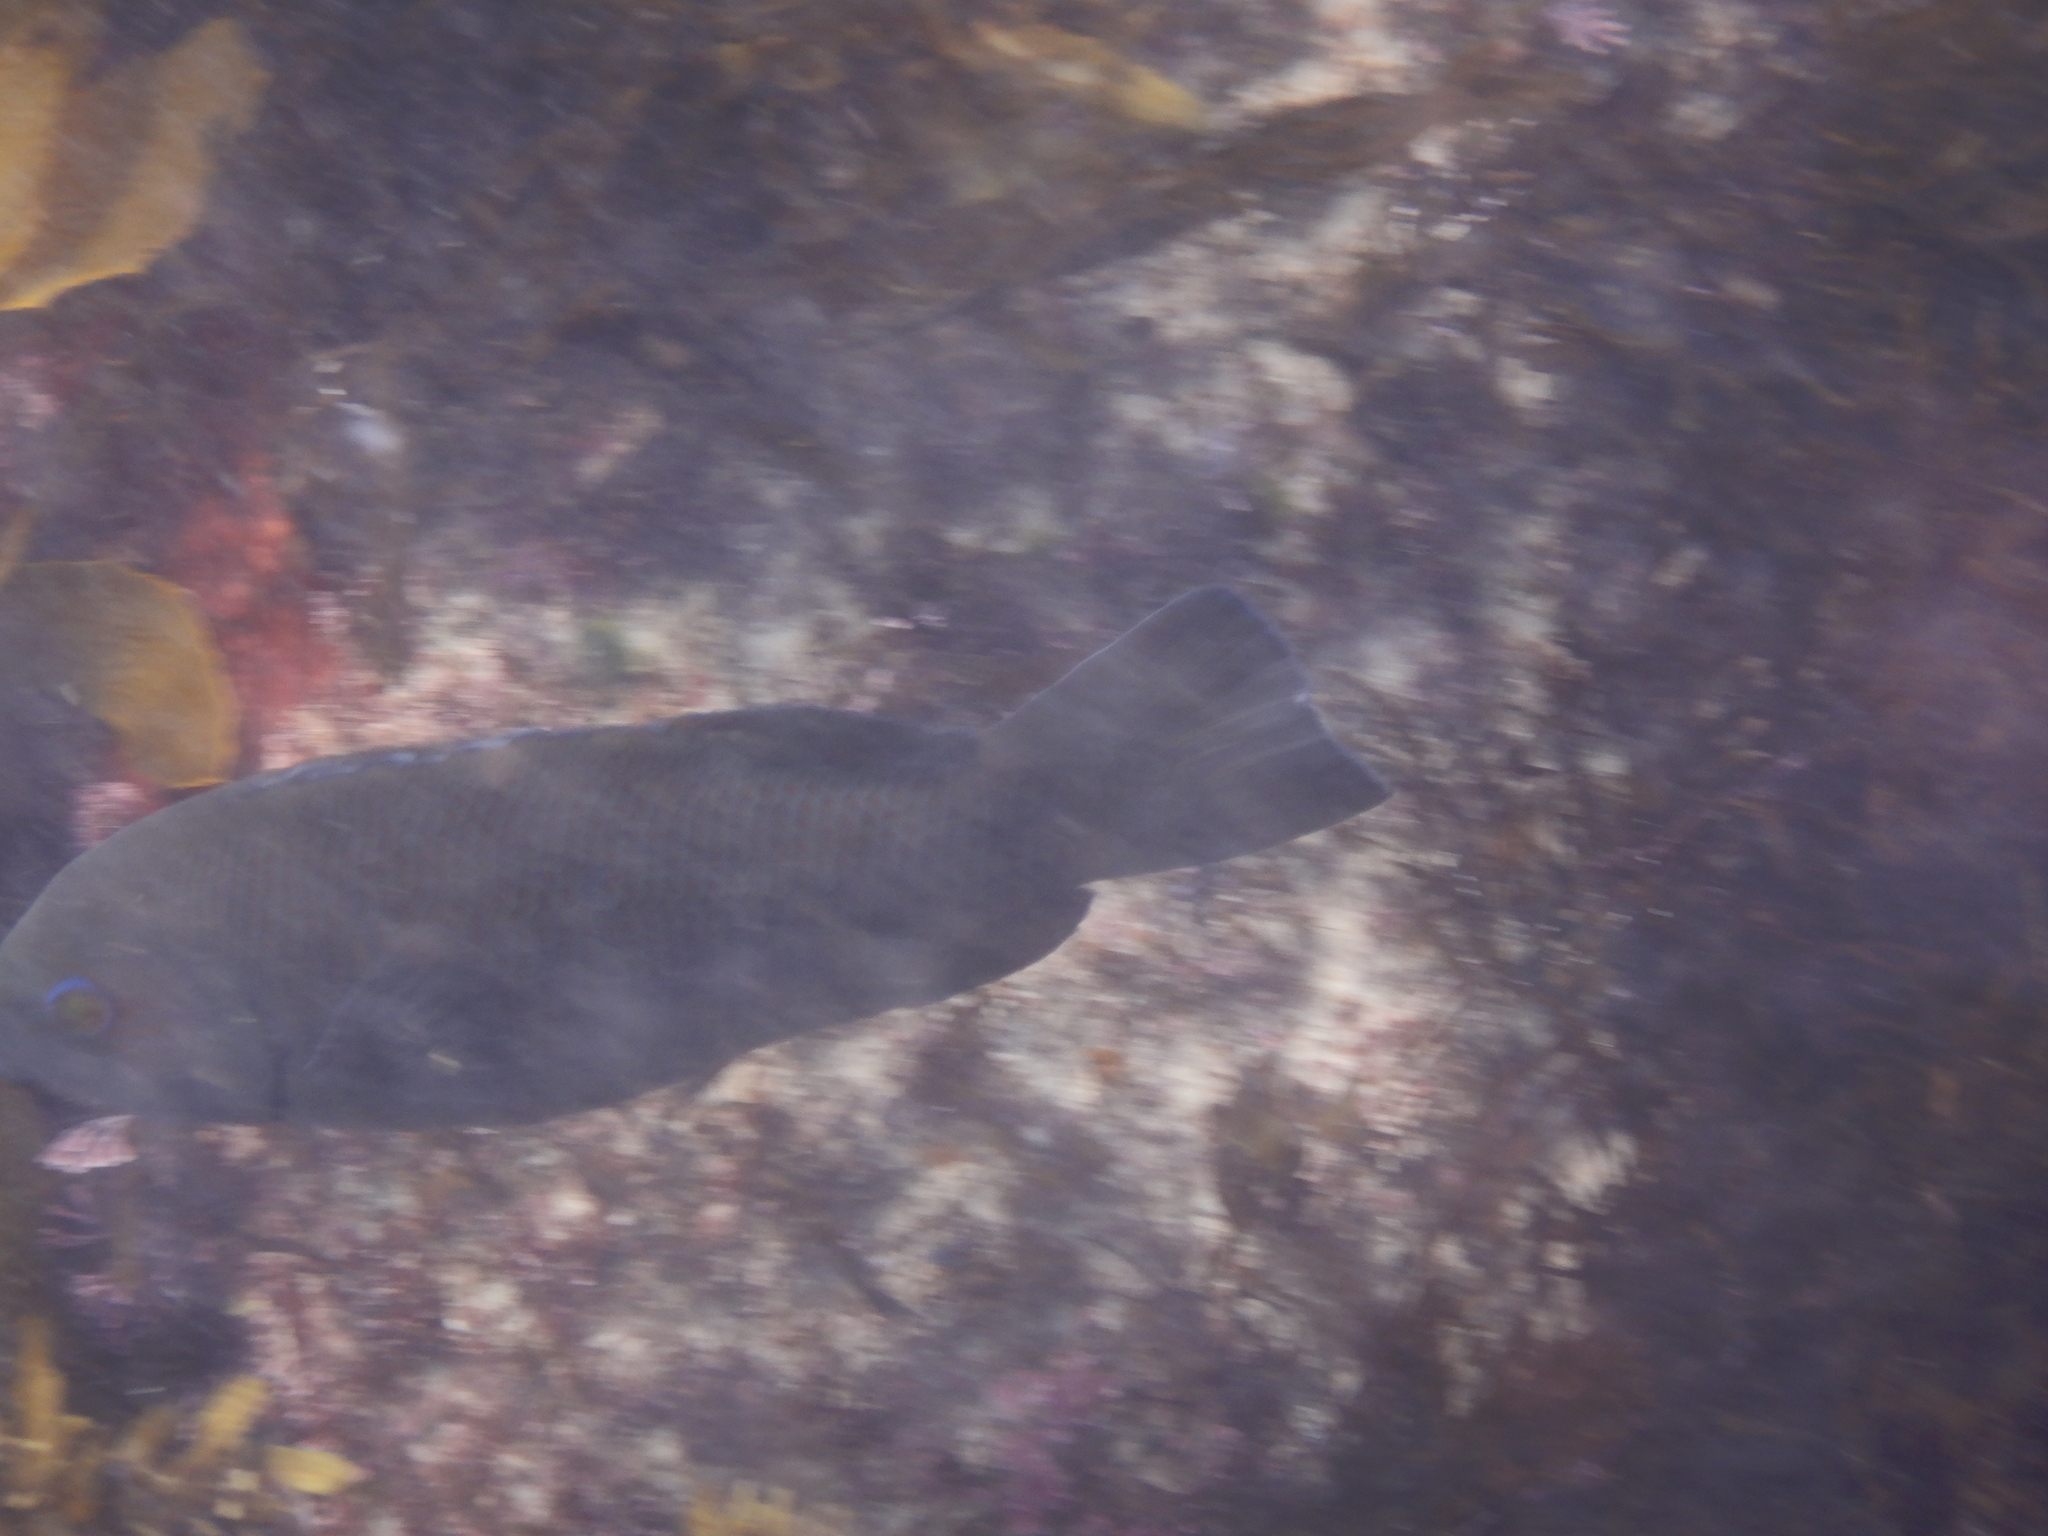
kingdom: Animalia
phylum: Chordata
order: Perciformes
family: Labridae
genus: Achoerodus
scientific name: Achoerodus viridis
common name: Brown groper
